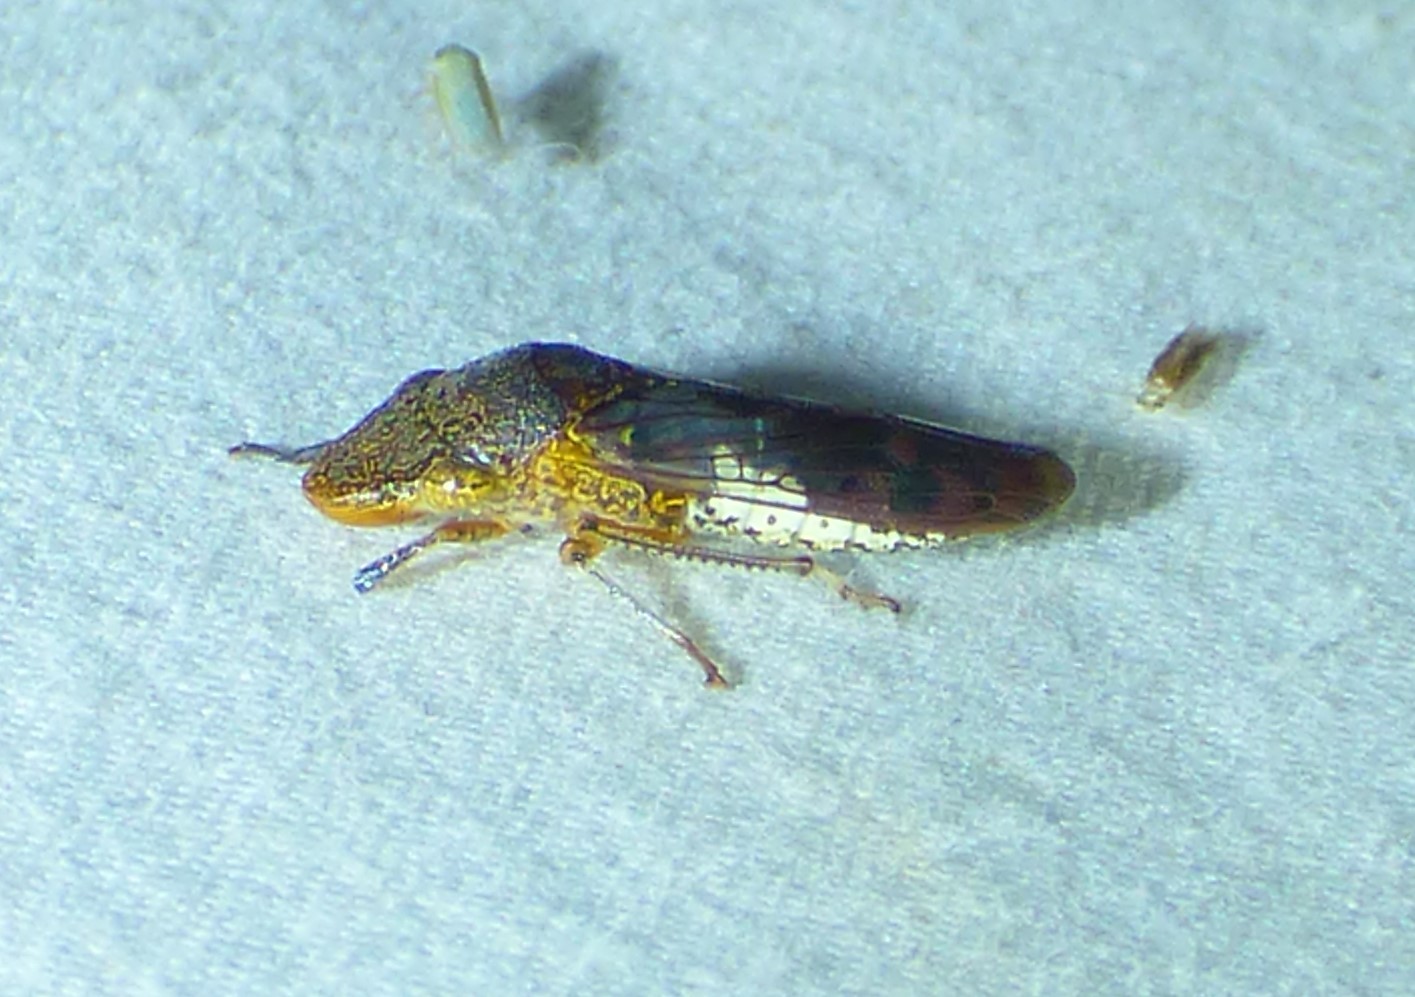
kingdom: Animalia
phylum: Arthropoda
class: Insecta
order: Hemiptera
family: Cicadellidae
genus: Homalodisca
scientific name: Homalodisca vitripennis
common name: Glassy-winged sharpshooter
